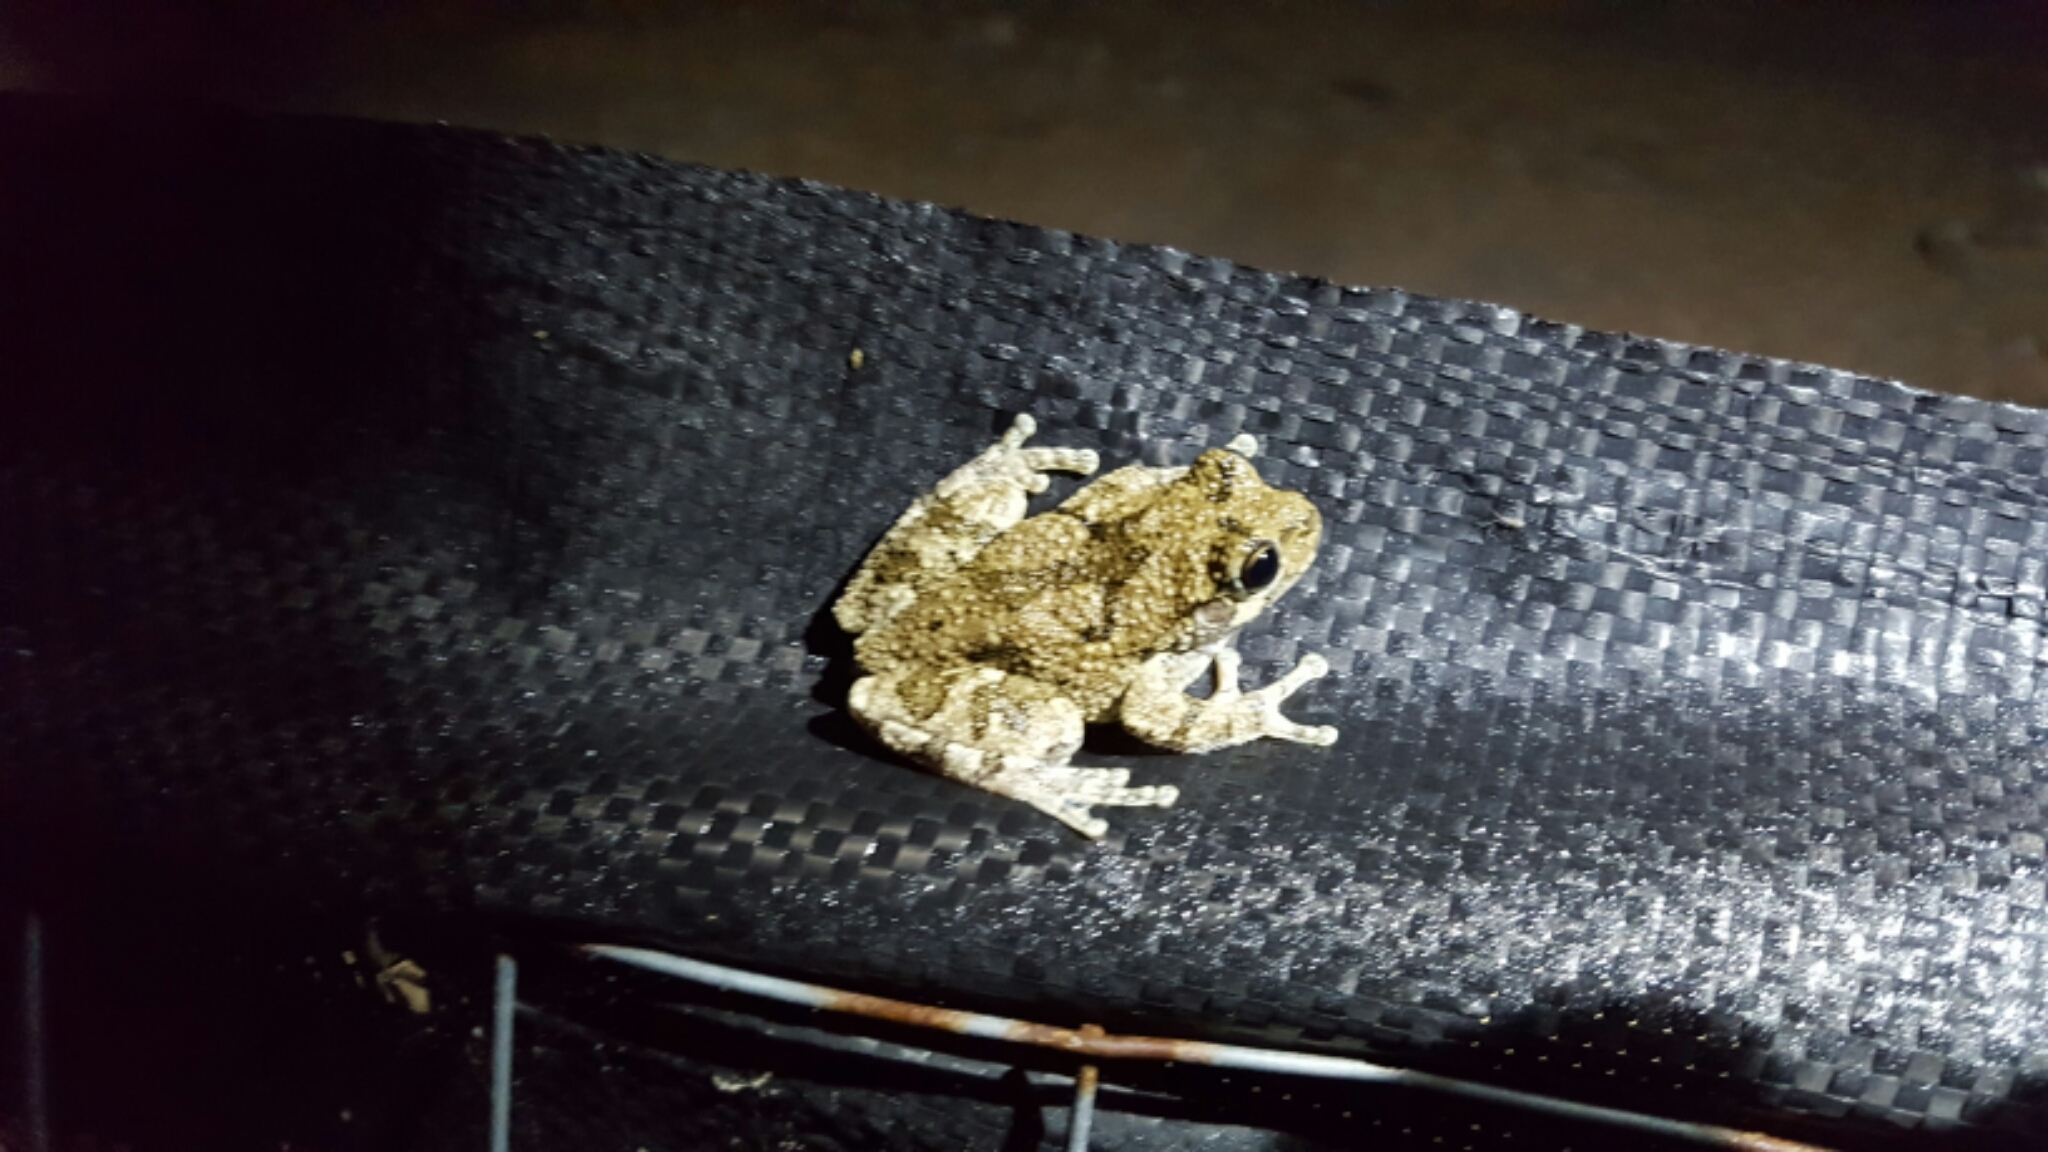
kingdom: Animalia
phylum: Chordata
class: Amphibia
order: Anura
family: Hylidae
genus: Dryophytes
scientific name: Dryophytes chrysoscelis
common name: Cope's gray treefrog
